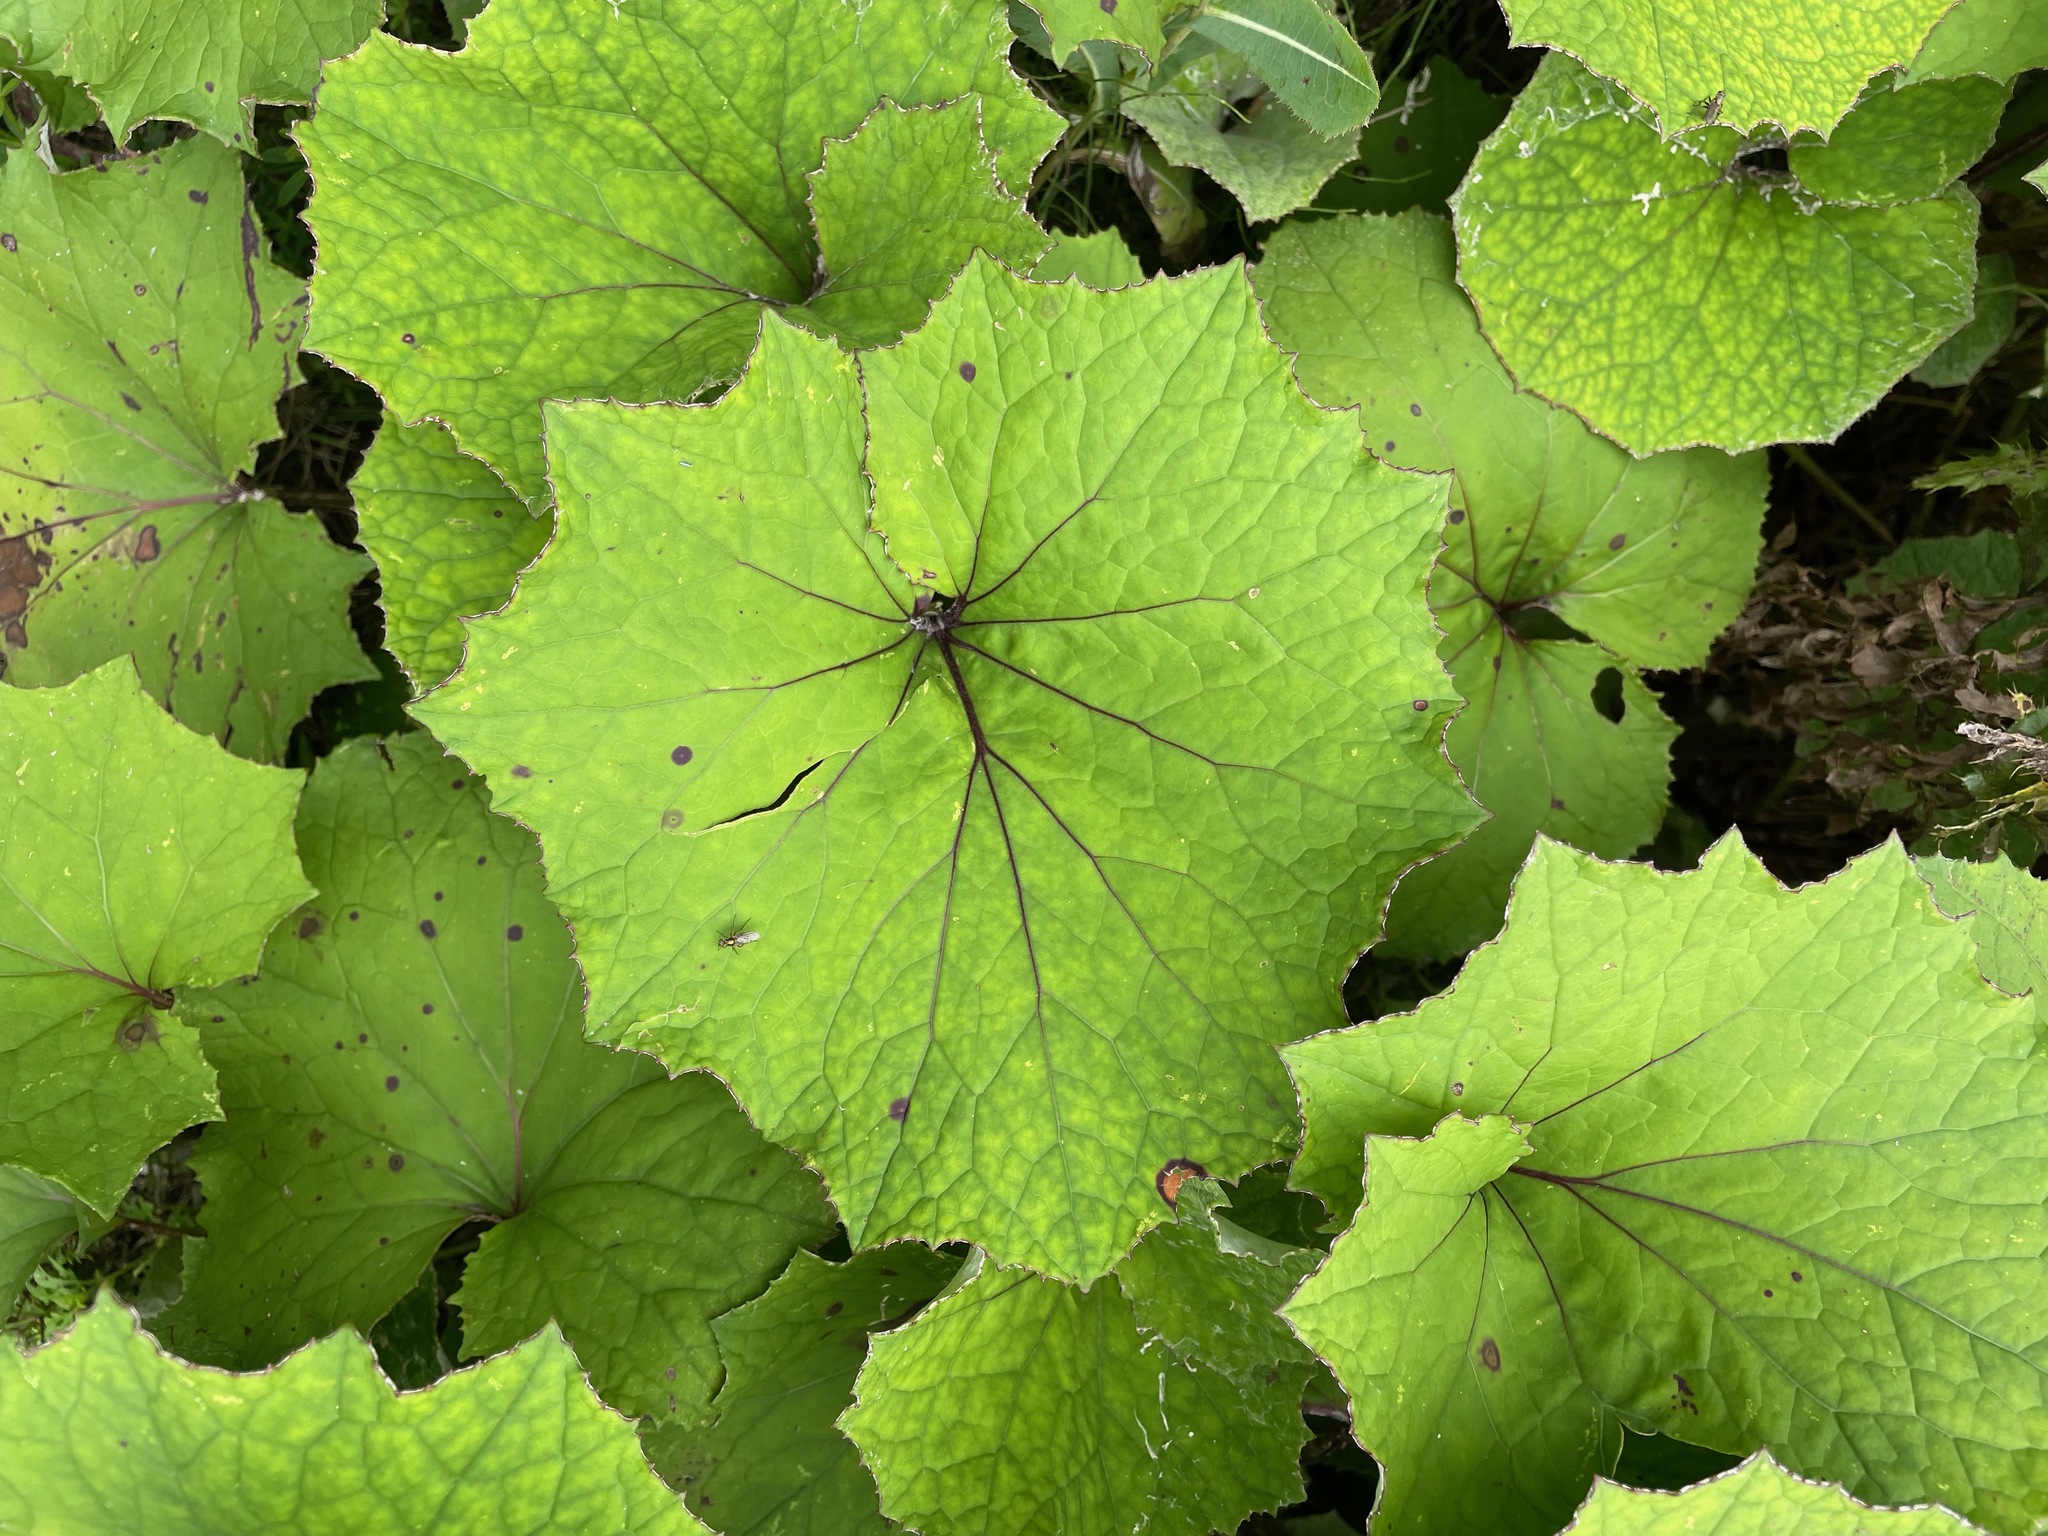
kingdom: Plantae
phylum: Tracheophyta
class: Magnoliopsida
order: Asterales
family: Asteraceae
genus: Tussilago
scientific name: Tussilago farfara
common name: Coltsfoot
